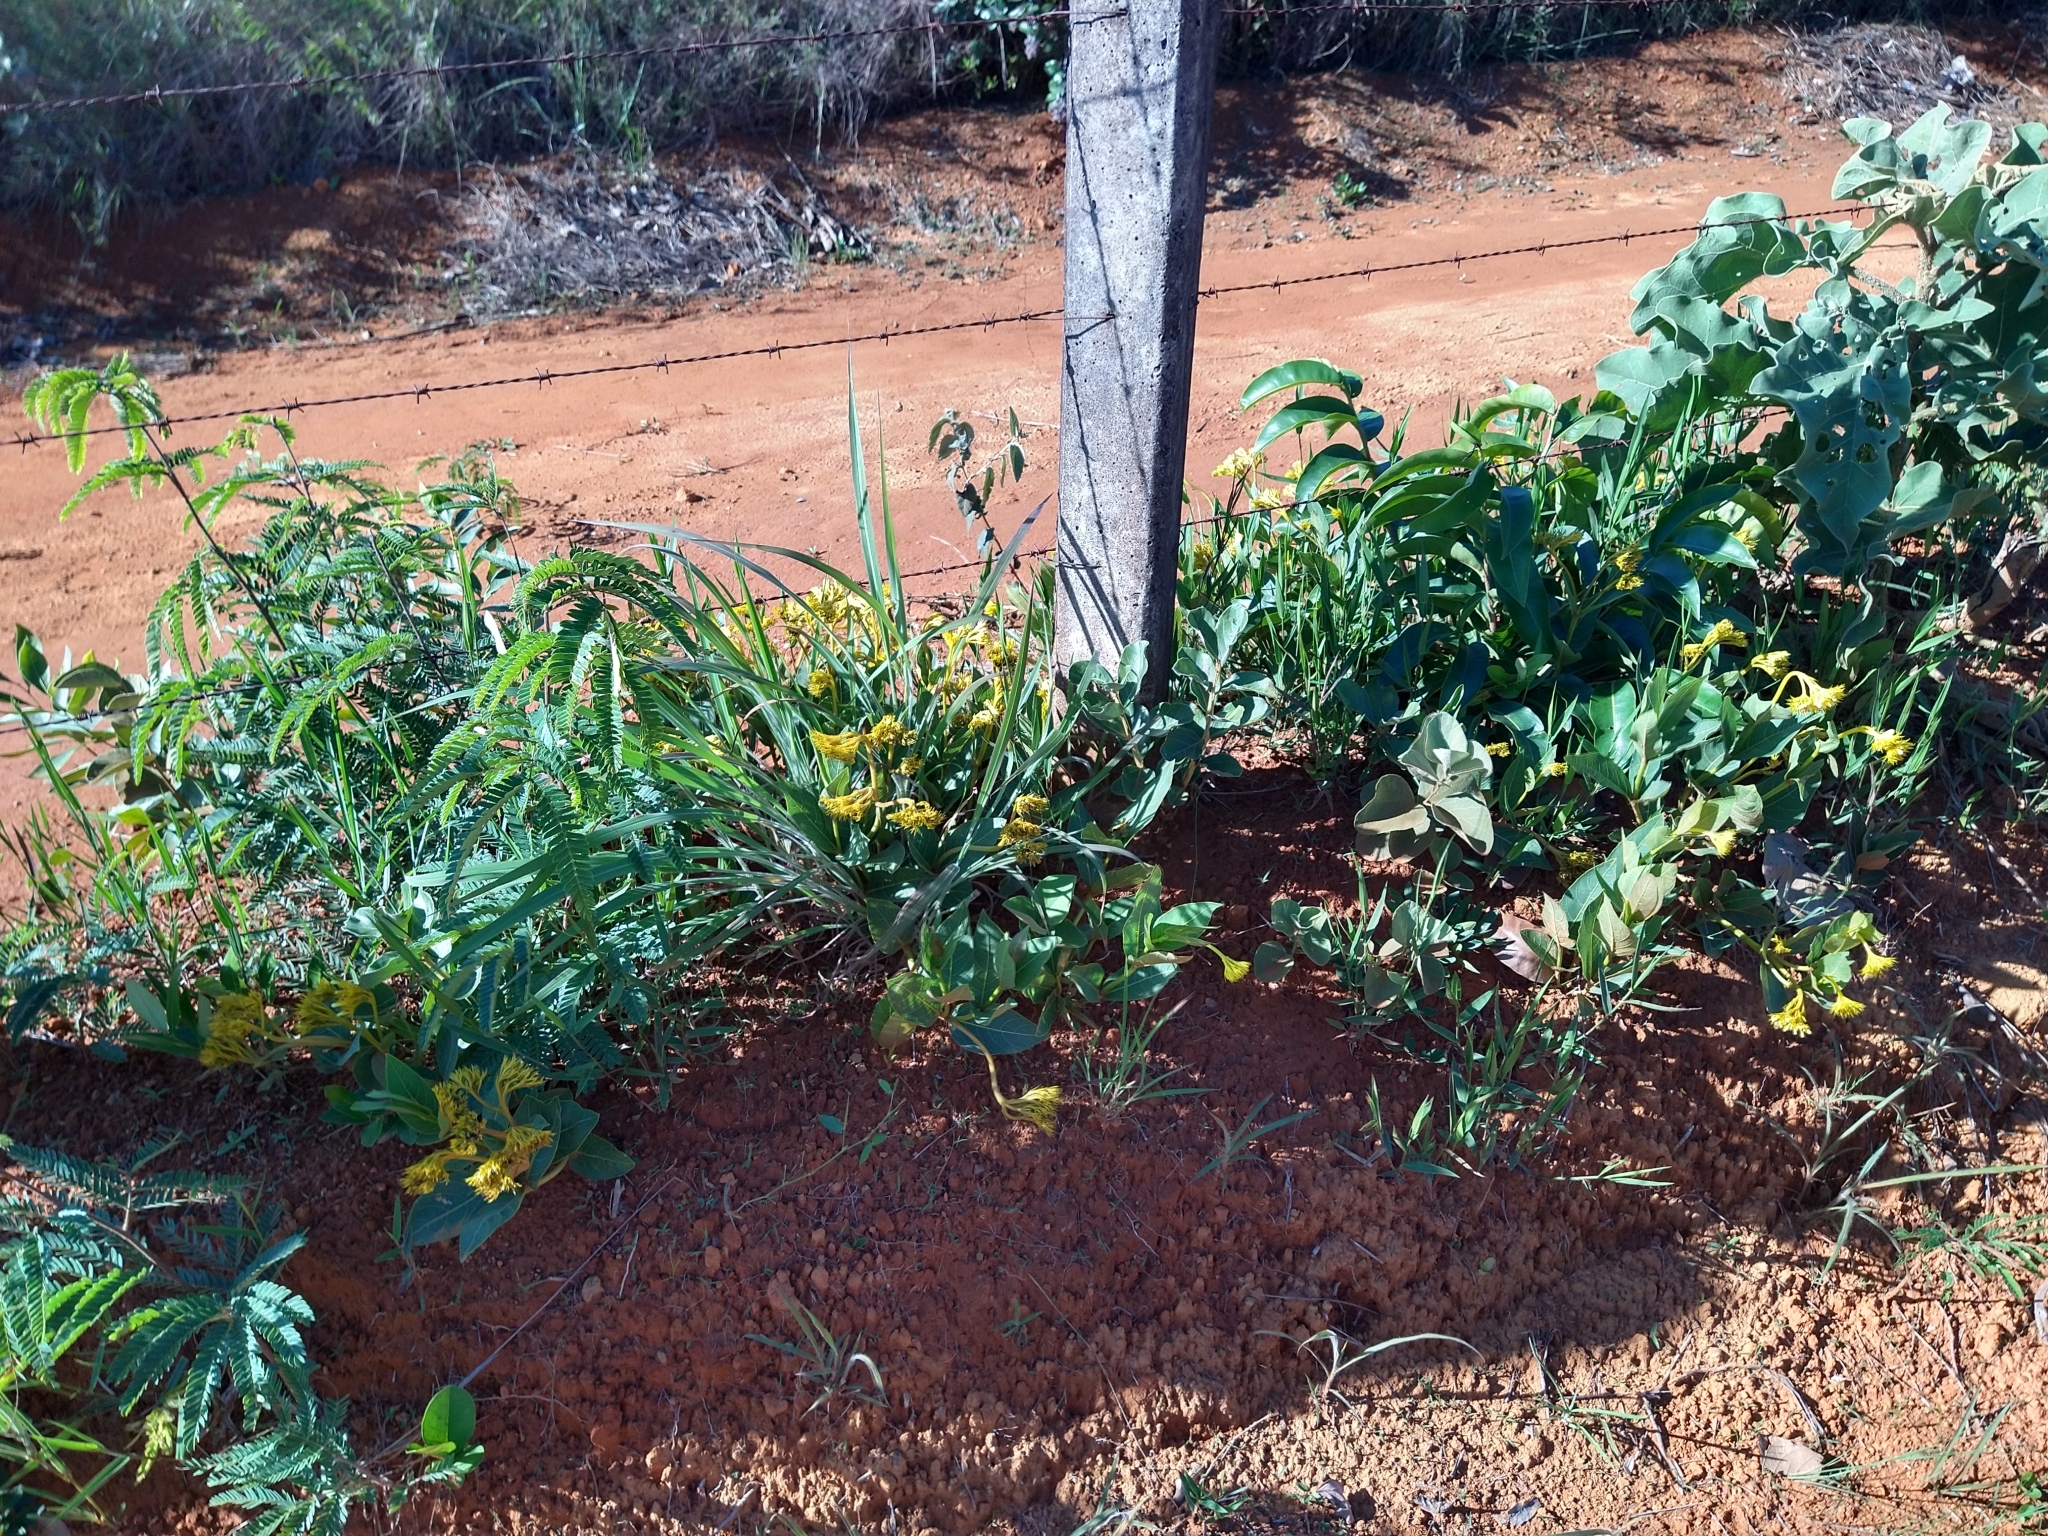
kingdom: Plantae
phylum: Tracheophyta
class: Magnoliopsida
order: Gentianales
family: Rubiaceae
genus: Palicourea
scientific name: Palicourea coriacea
